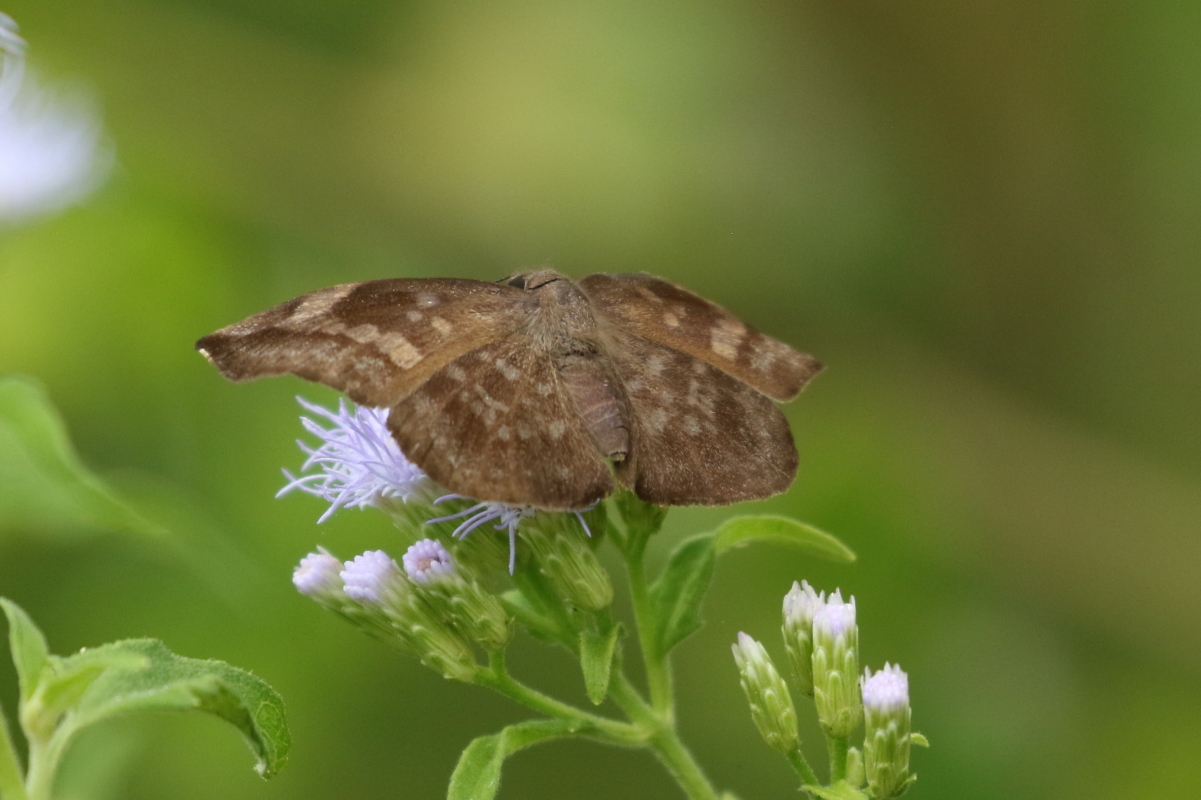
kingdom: Animalia
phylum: Arthropoda
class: Insecta
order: Lepidoptera
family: Hesperiidae
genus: Achlyodes
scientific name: Achlyodes thraso
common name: Sickle-winged skipper
